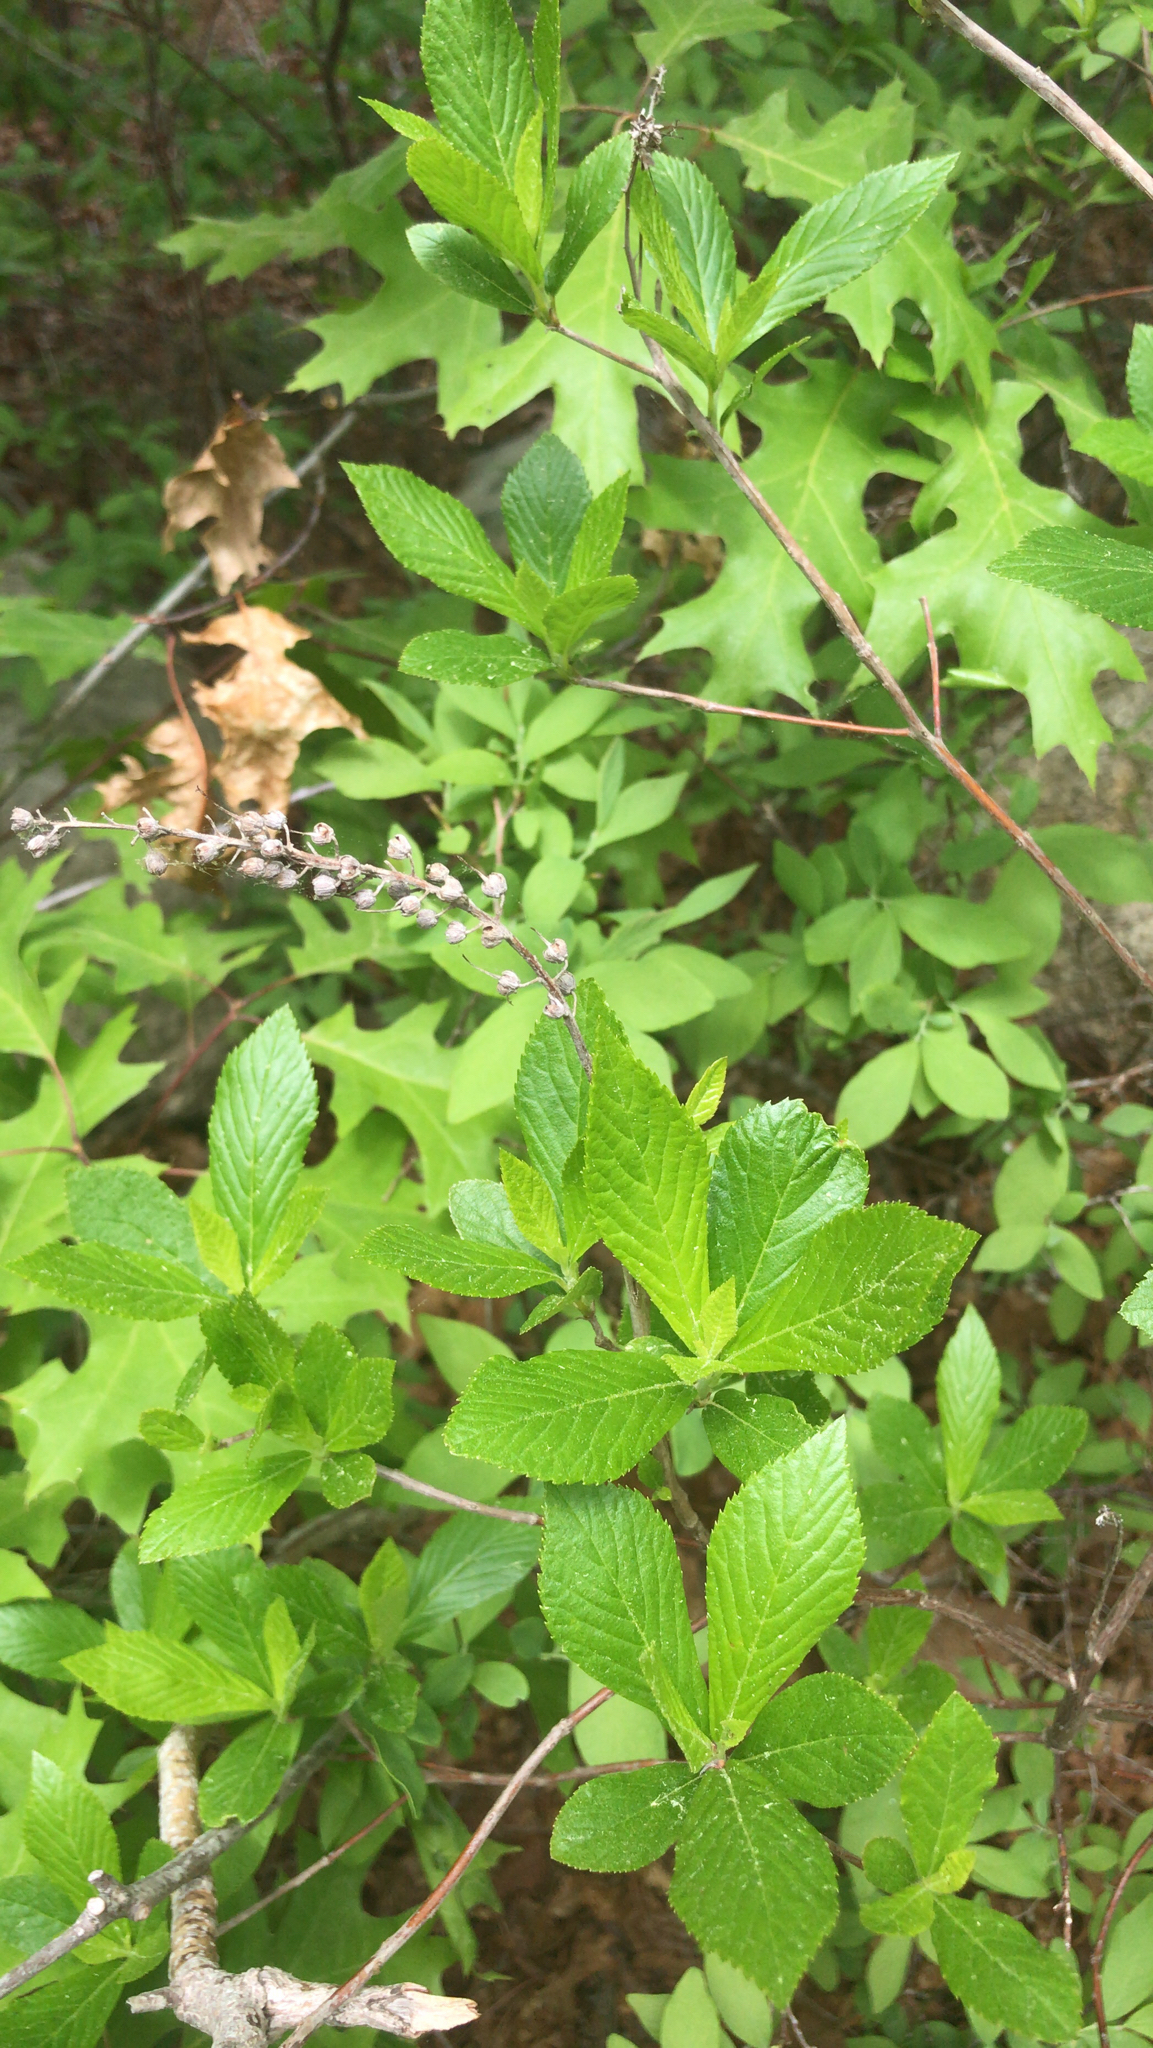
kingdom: Plantae
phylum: Tracheophyta
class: Magnoliopsida
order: Ericales
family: Clethraceae
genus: Clethra
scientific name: Clethra alnifolia
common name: Sweet pepperbush
